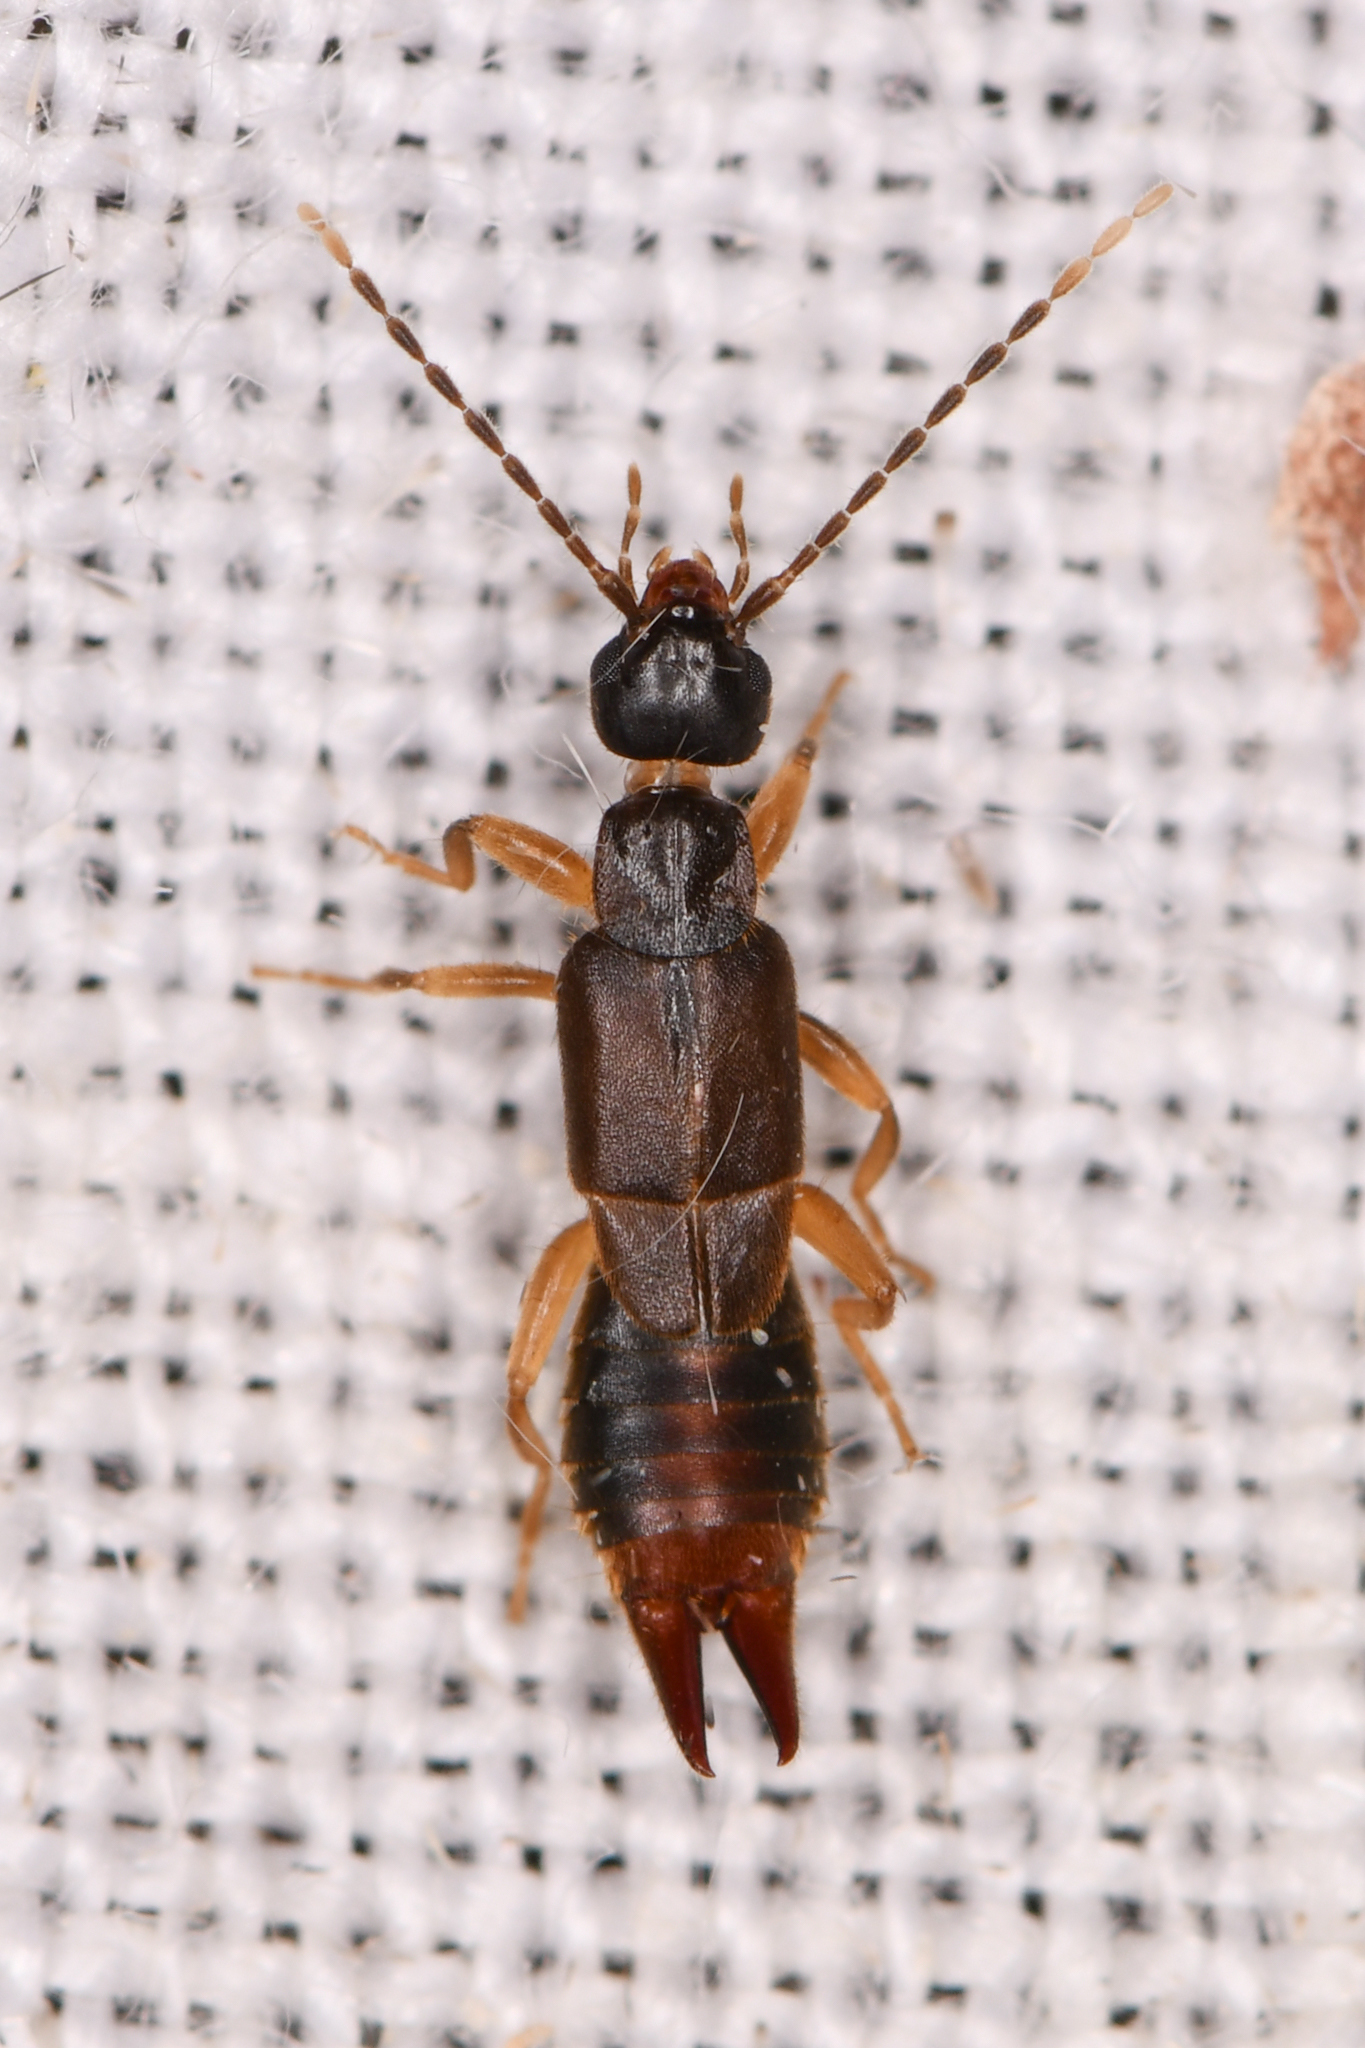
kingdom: Animalia
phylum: Arthropoda
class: Insecta
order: Dermaptera
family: Spongiphoridae
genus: Labia
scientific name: Labia minor
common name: Lesser earwig
